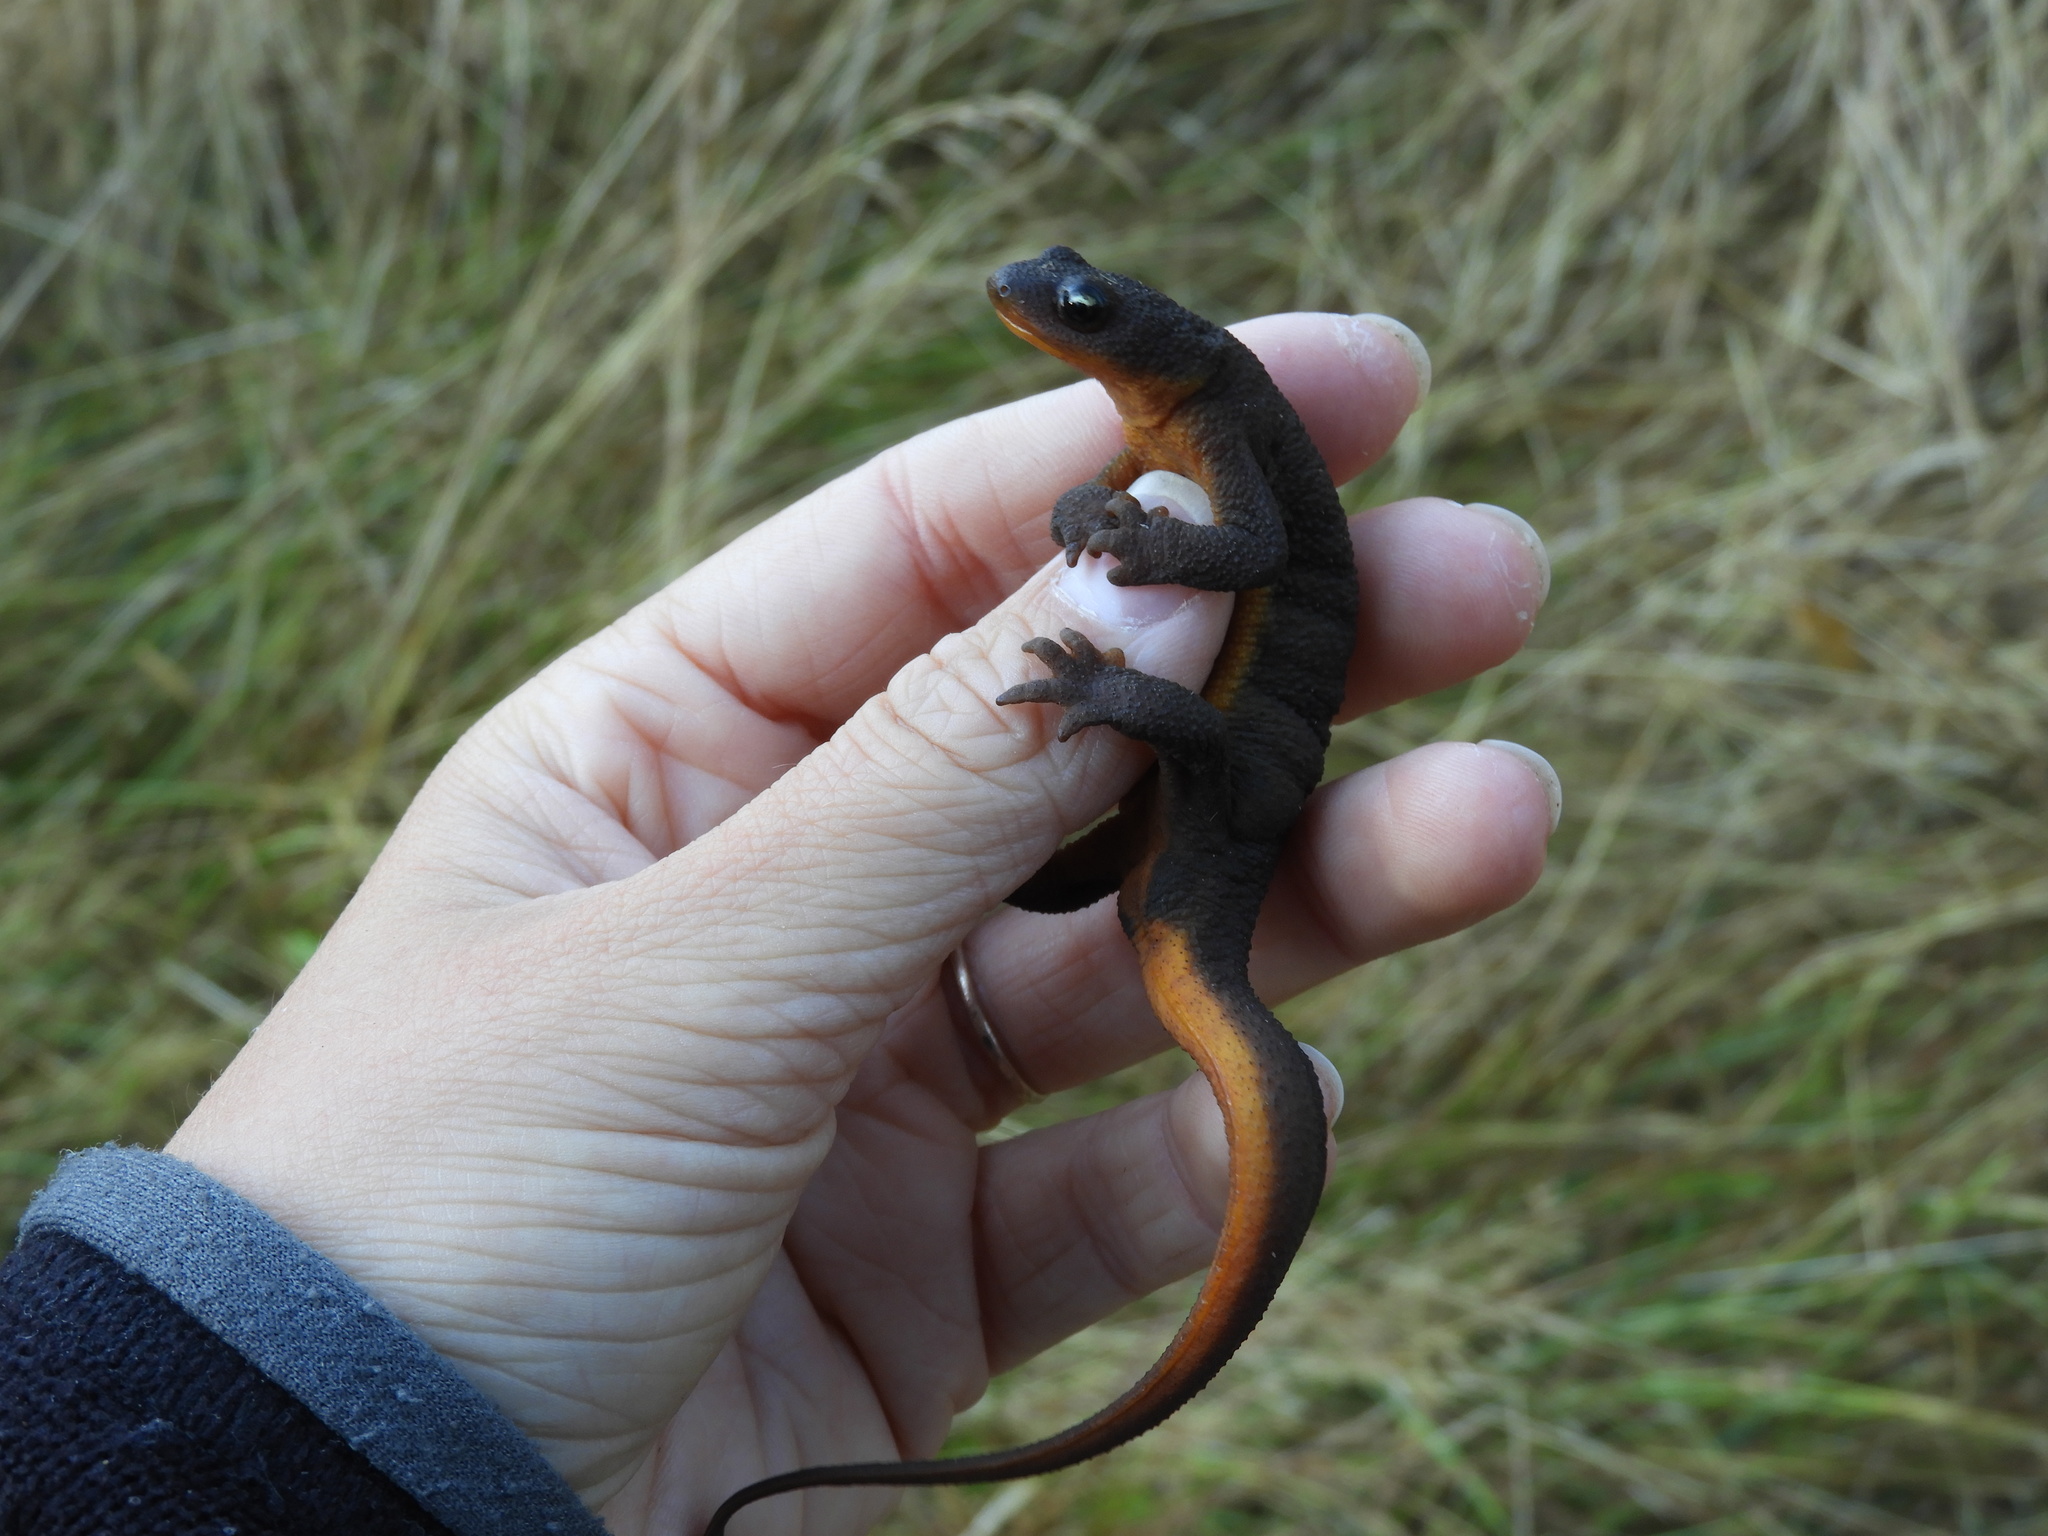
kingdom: Animalia
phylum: Chordata
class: Amphibia
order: Caudata
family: Salamandridae
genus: Taricha
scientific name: Taricha granulosa
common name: Roughskin newt
